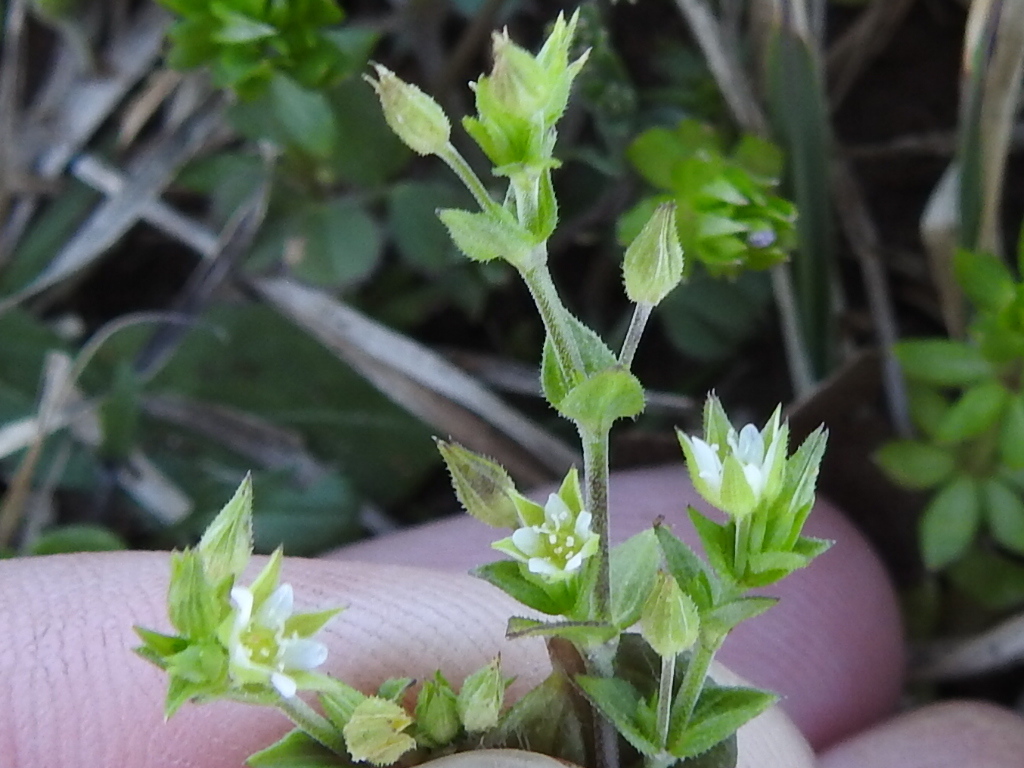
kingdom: Plantae
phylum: Tracheophyta
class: Magnoliopsida
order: Caryophyllales
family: Caryophyllaceae
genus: Arenaria
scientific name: Arenaria serpyllifolia
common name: Thyme-leaved sandwort
